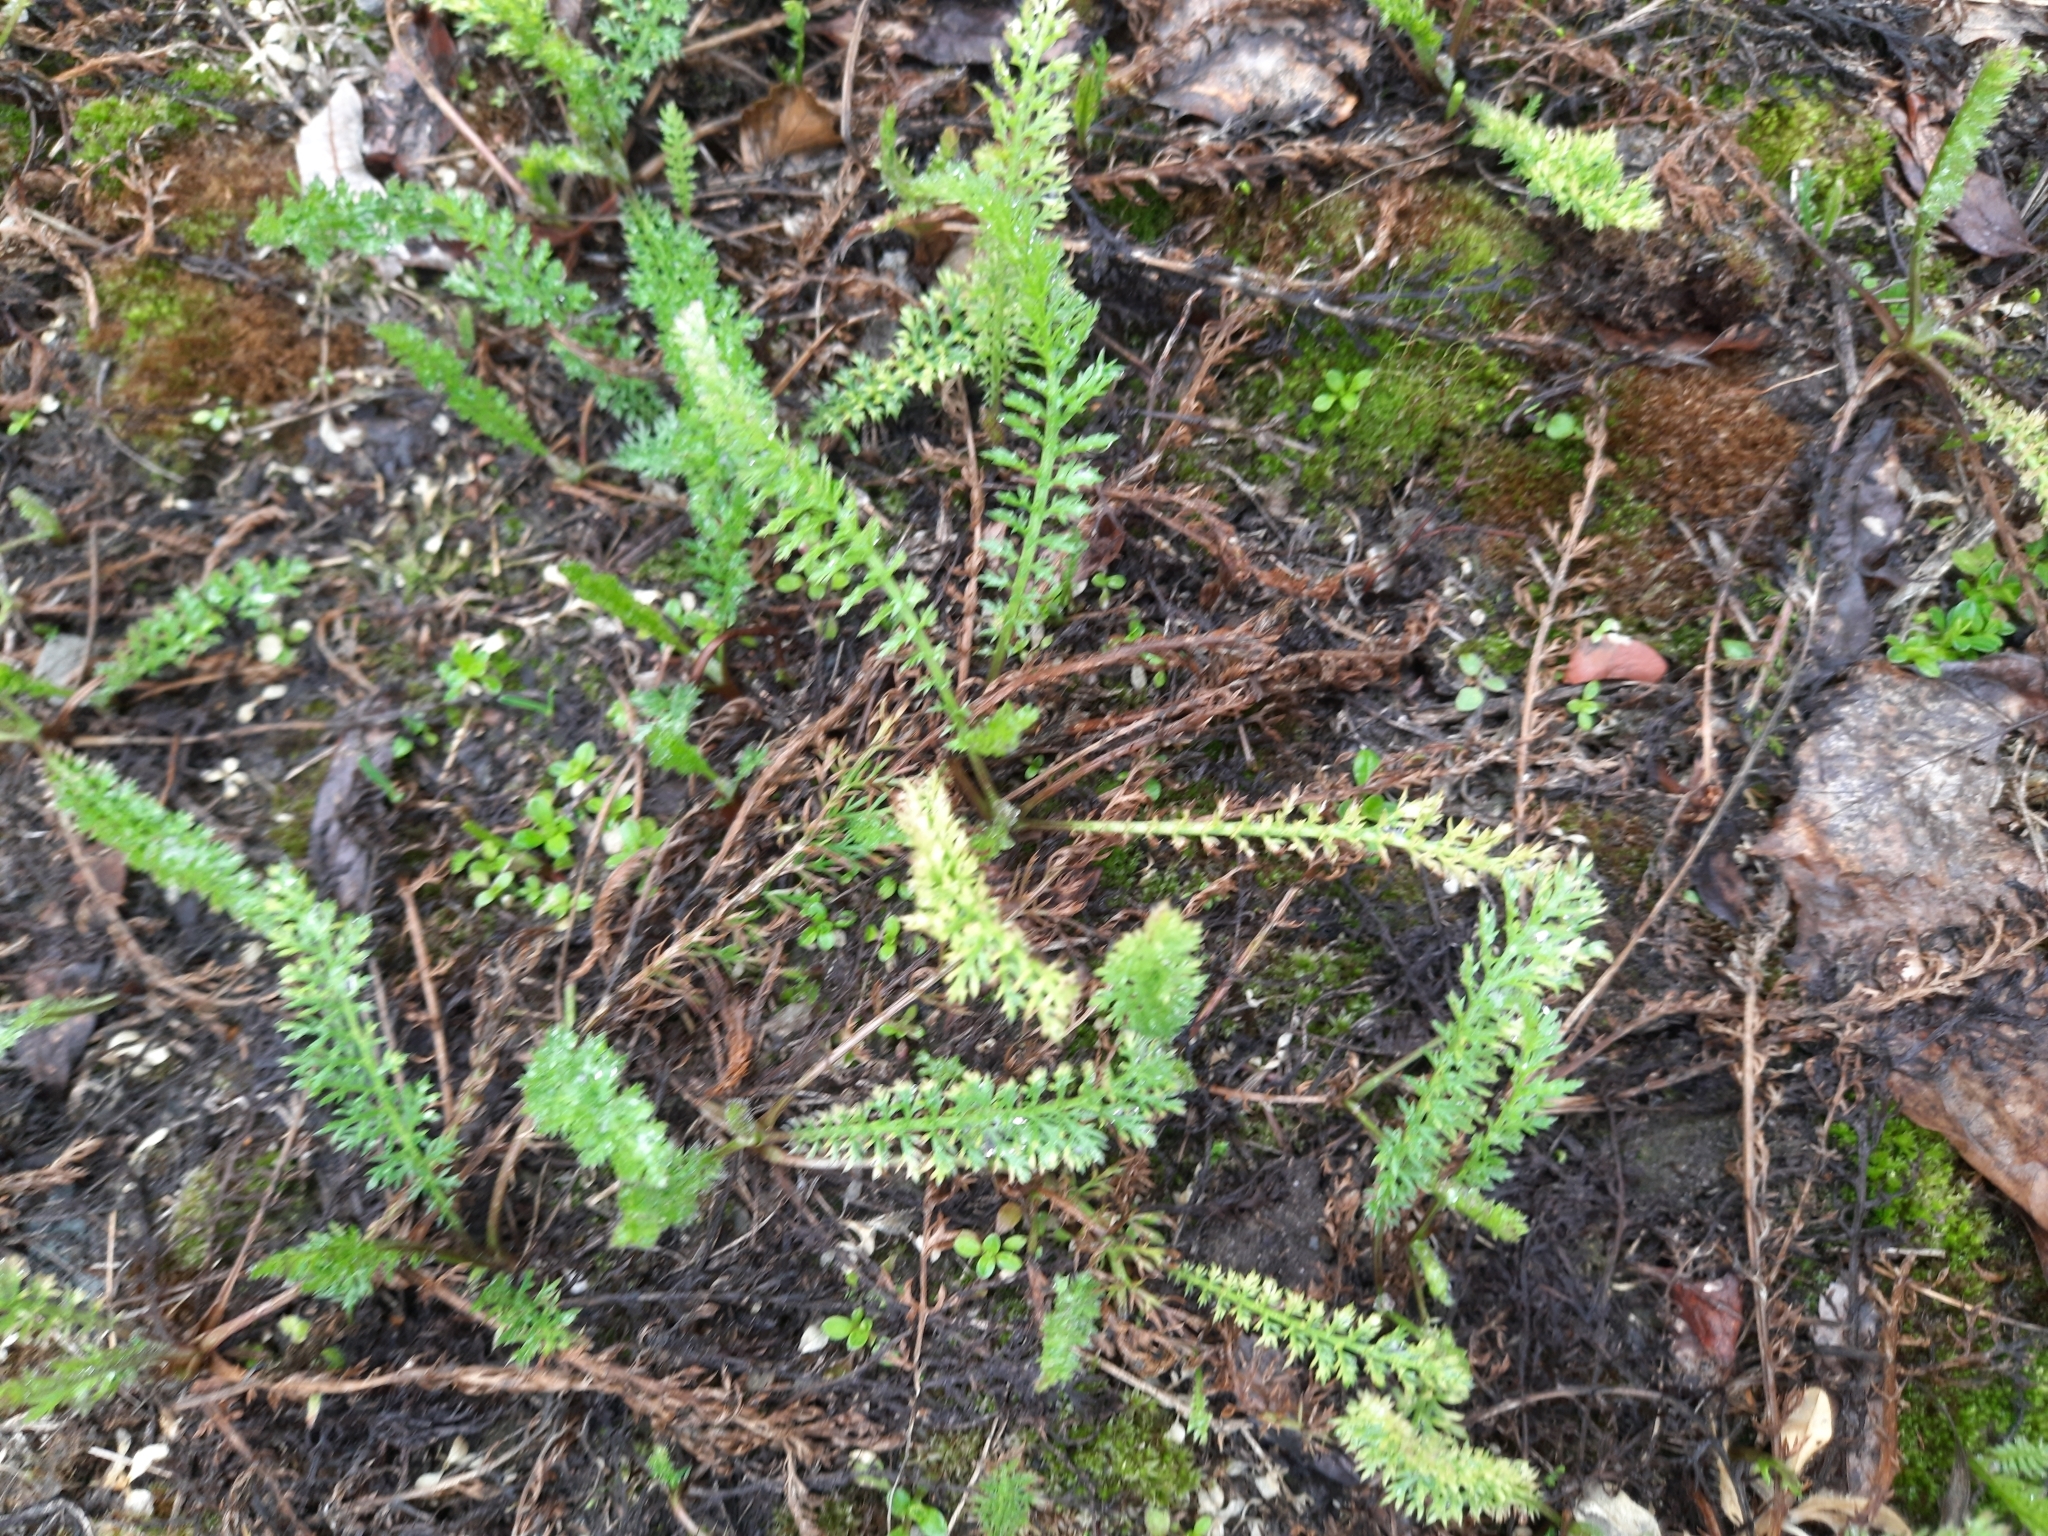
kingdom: Plantae
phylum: Tracheophyta
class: Magnoliopsida
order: Asterales
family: Asteraceae
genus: Achillea
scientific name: Achillea millefolium
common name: Yarrow
